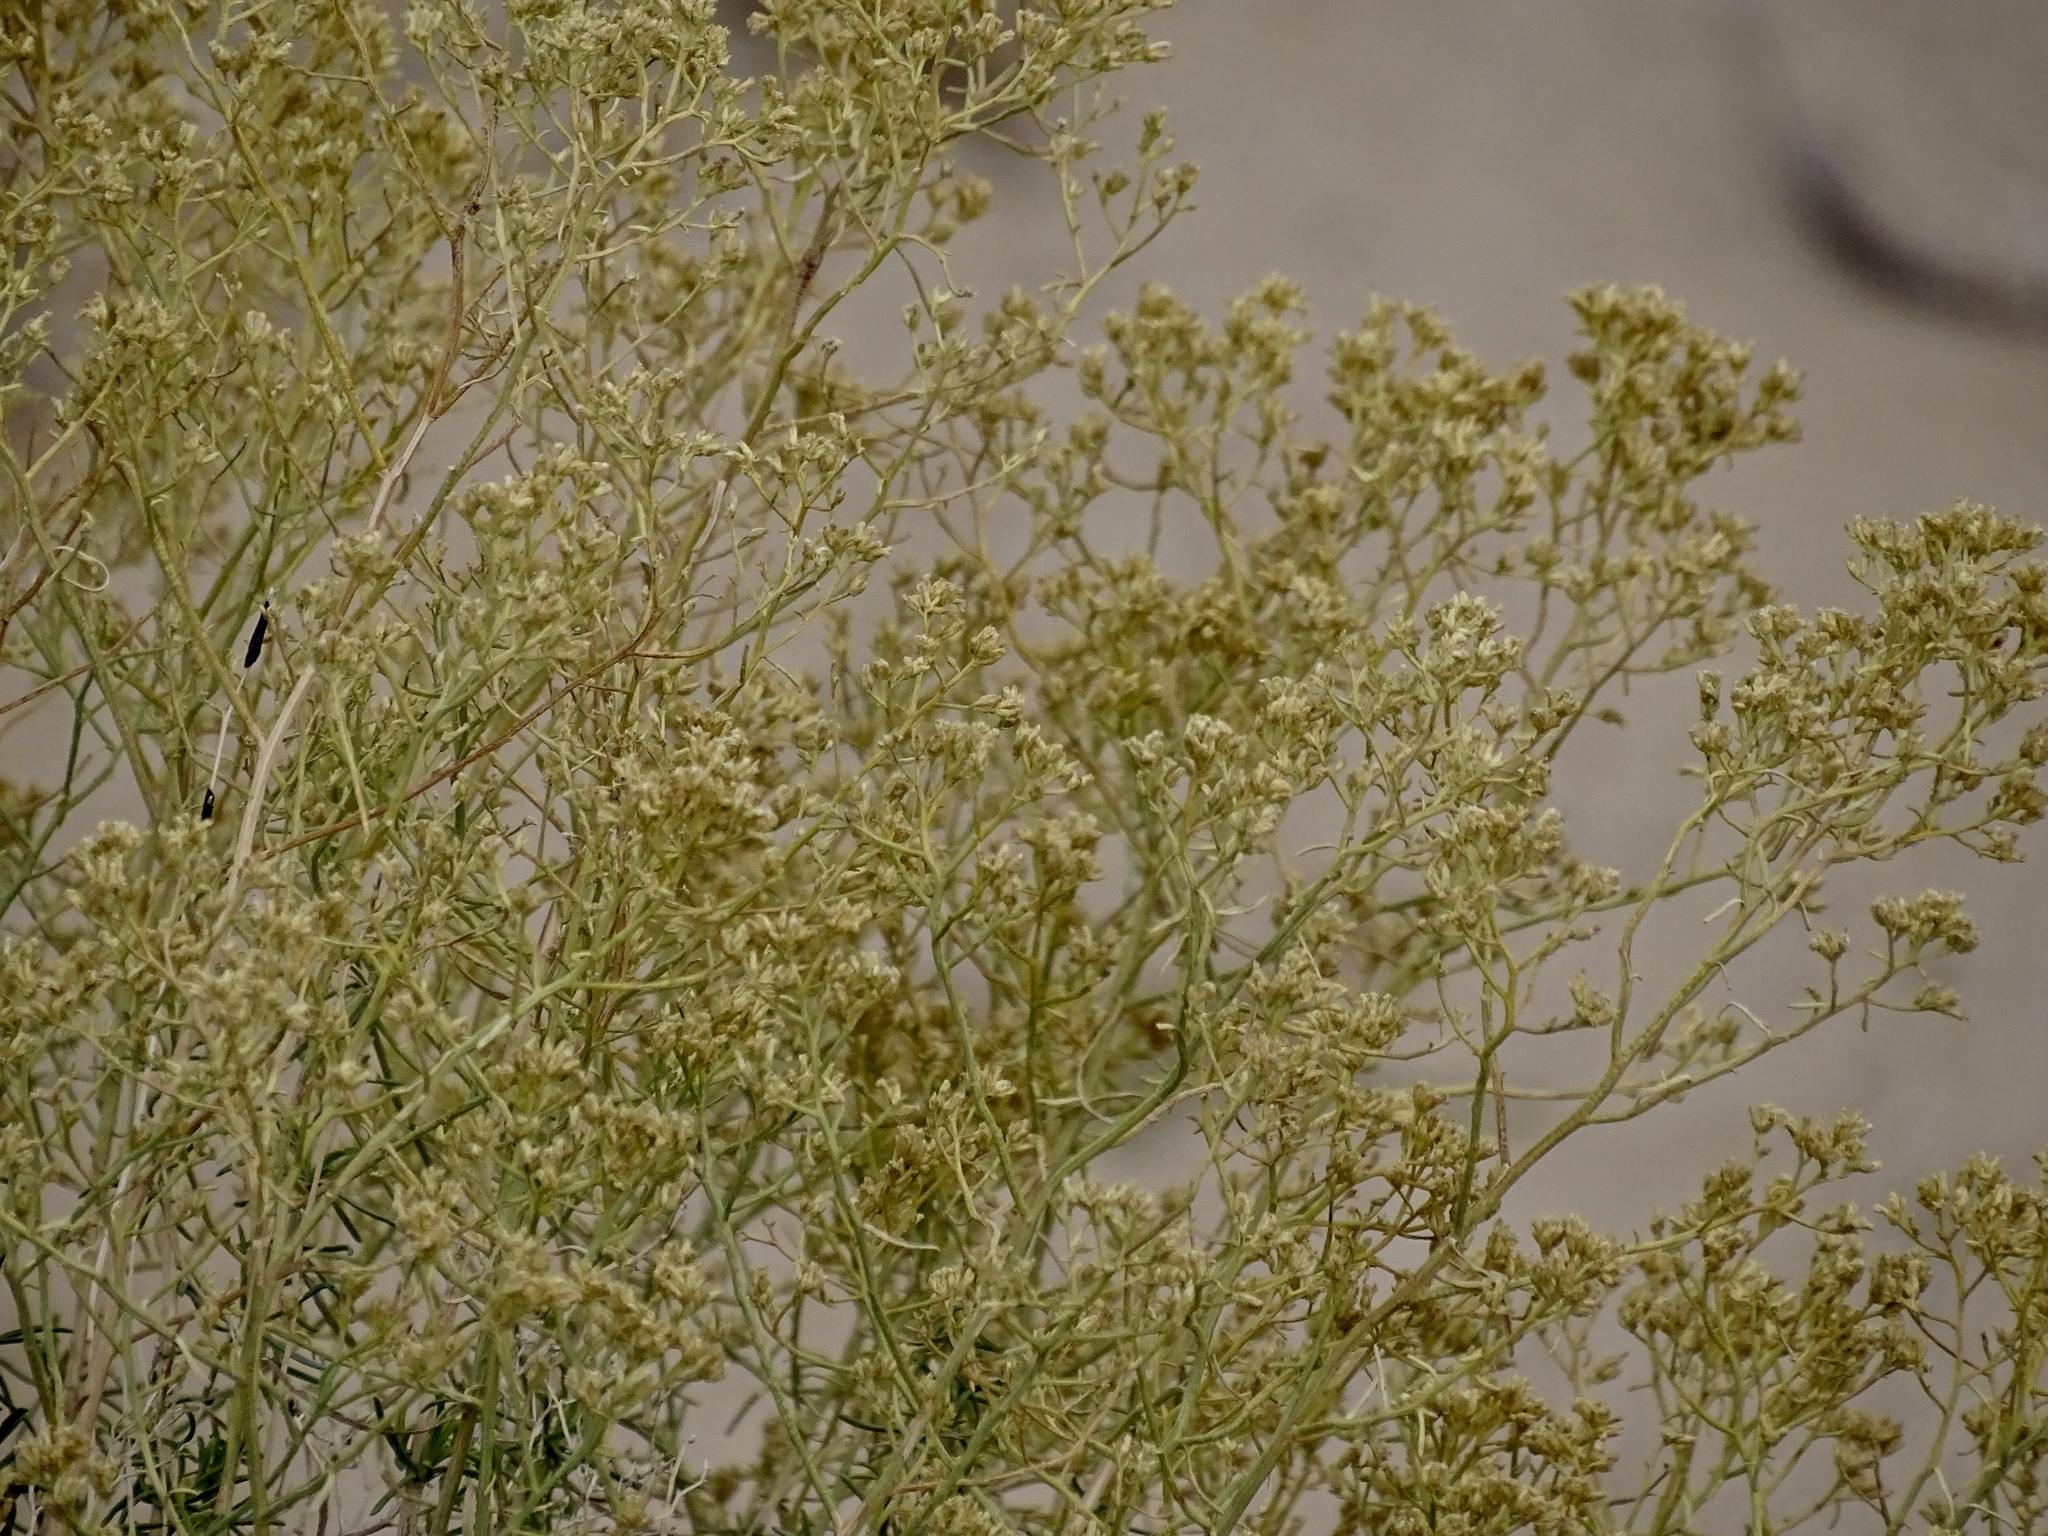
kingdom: Plantae
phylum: Tracheophyta
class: Magnoliopsida
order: Asterales
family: Asteraceae
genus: Gutierrezia
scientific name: Gutierrezia sarothrae
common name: Broom snakeweed
